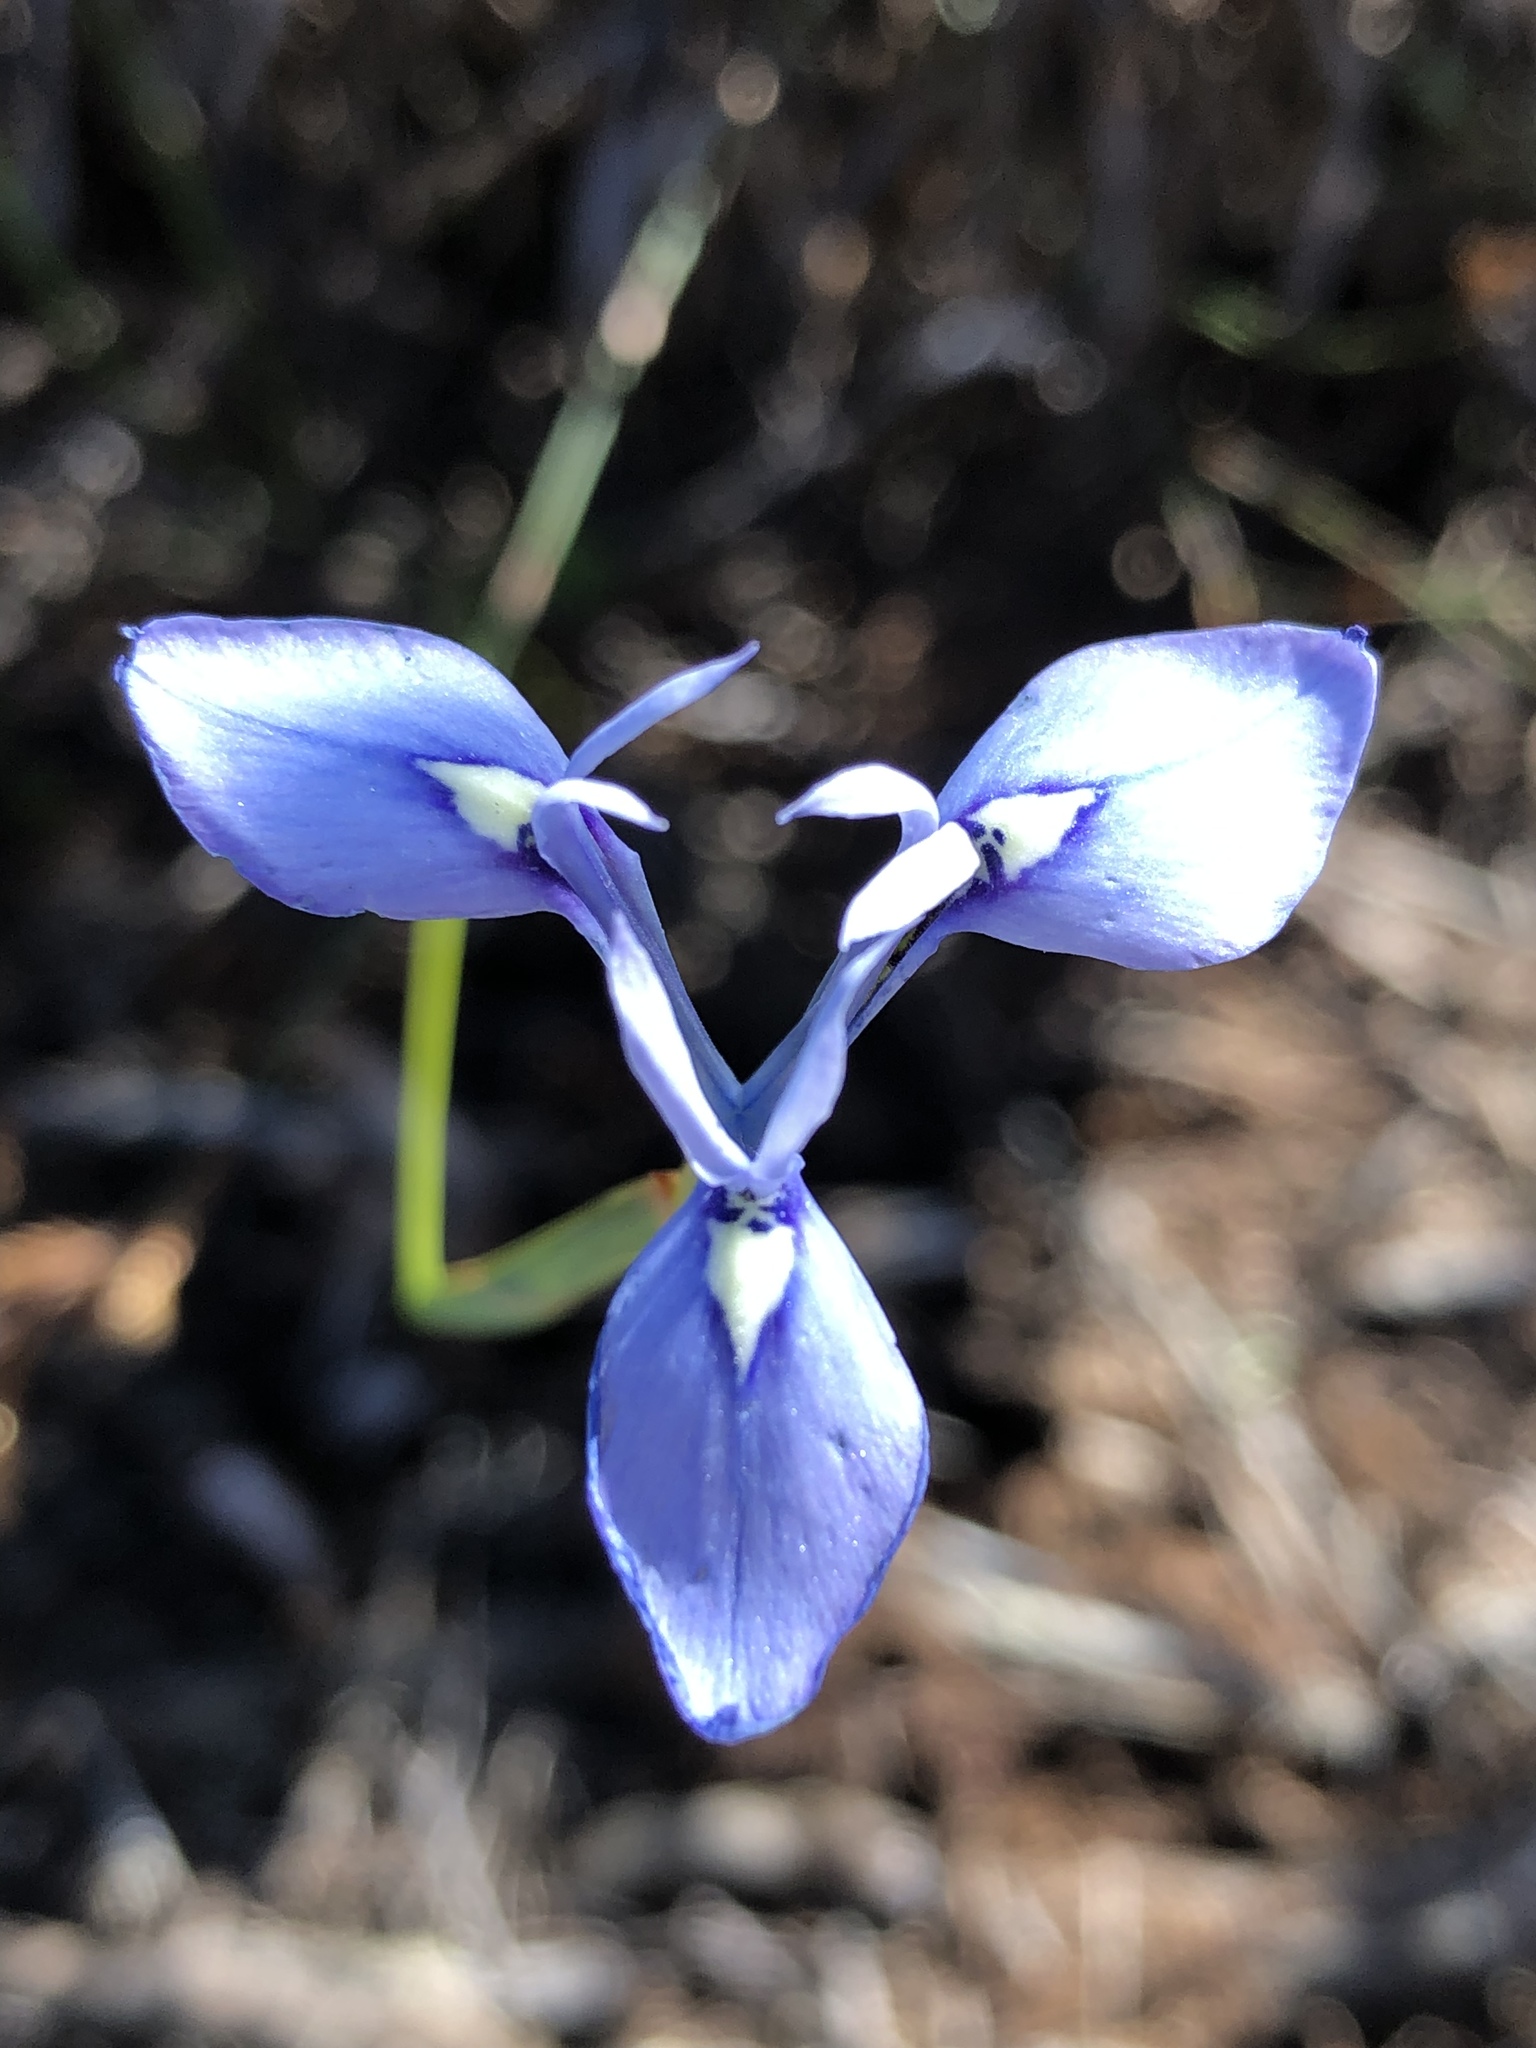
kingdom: Plantae
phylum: Tracheophyta
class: Liliopsida
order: Asparagales
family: Iridaceae
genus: Moraea
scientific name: Moraea tripetala
